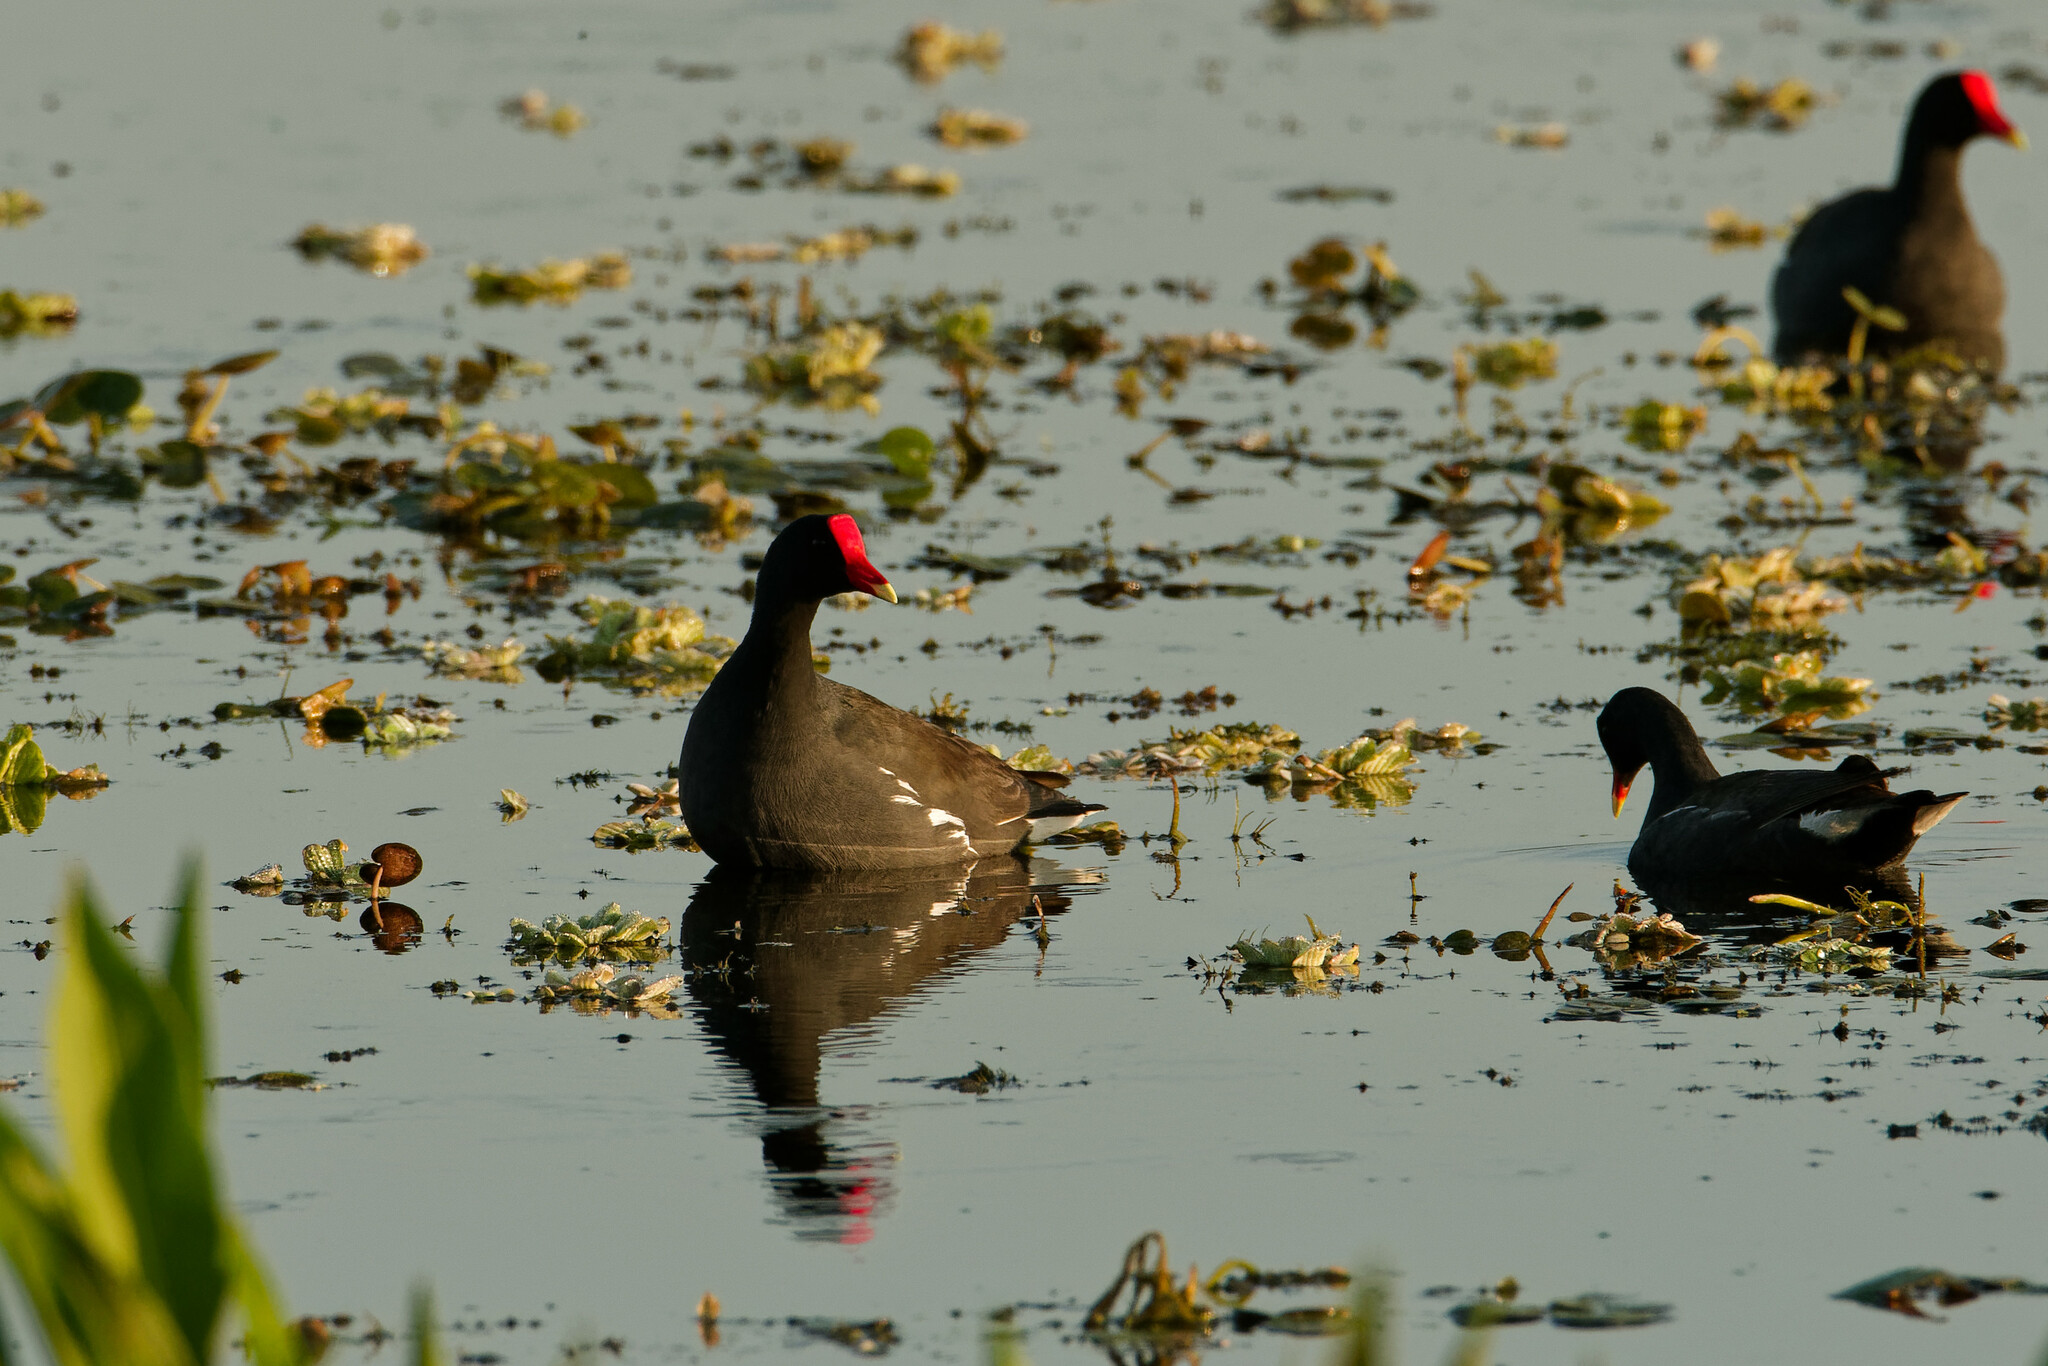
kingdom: Animalia
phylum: Chordata
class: Aves
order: Gruiformes
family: Rallidae
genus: Gallinula
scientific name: Gallinula chloropus
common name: Common moorhen
